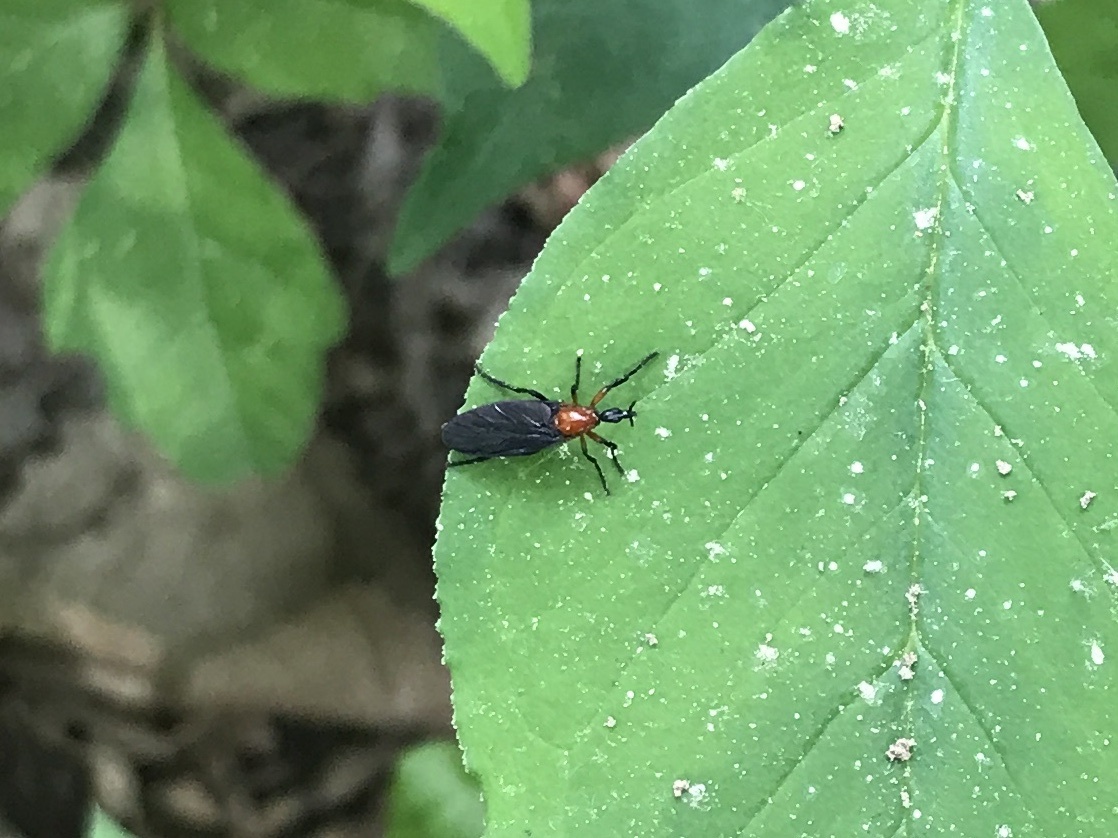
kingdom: Animalia
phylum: Arthropoda
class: Insecta
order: Diptera
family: Bibionidae
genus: Dilophus
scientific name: Dilophus spinipes
